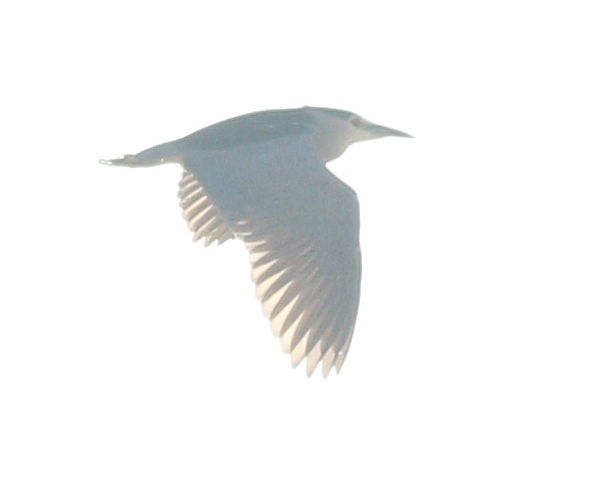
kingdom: Animalia
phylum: Chordata
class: Aves
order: Pelecaniformes
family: Ardeidae
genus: Nycticorax
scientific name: Nycticorax nycticorax
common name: Black-crowned night heron
